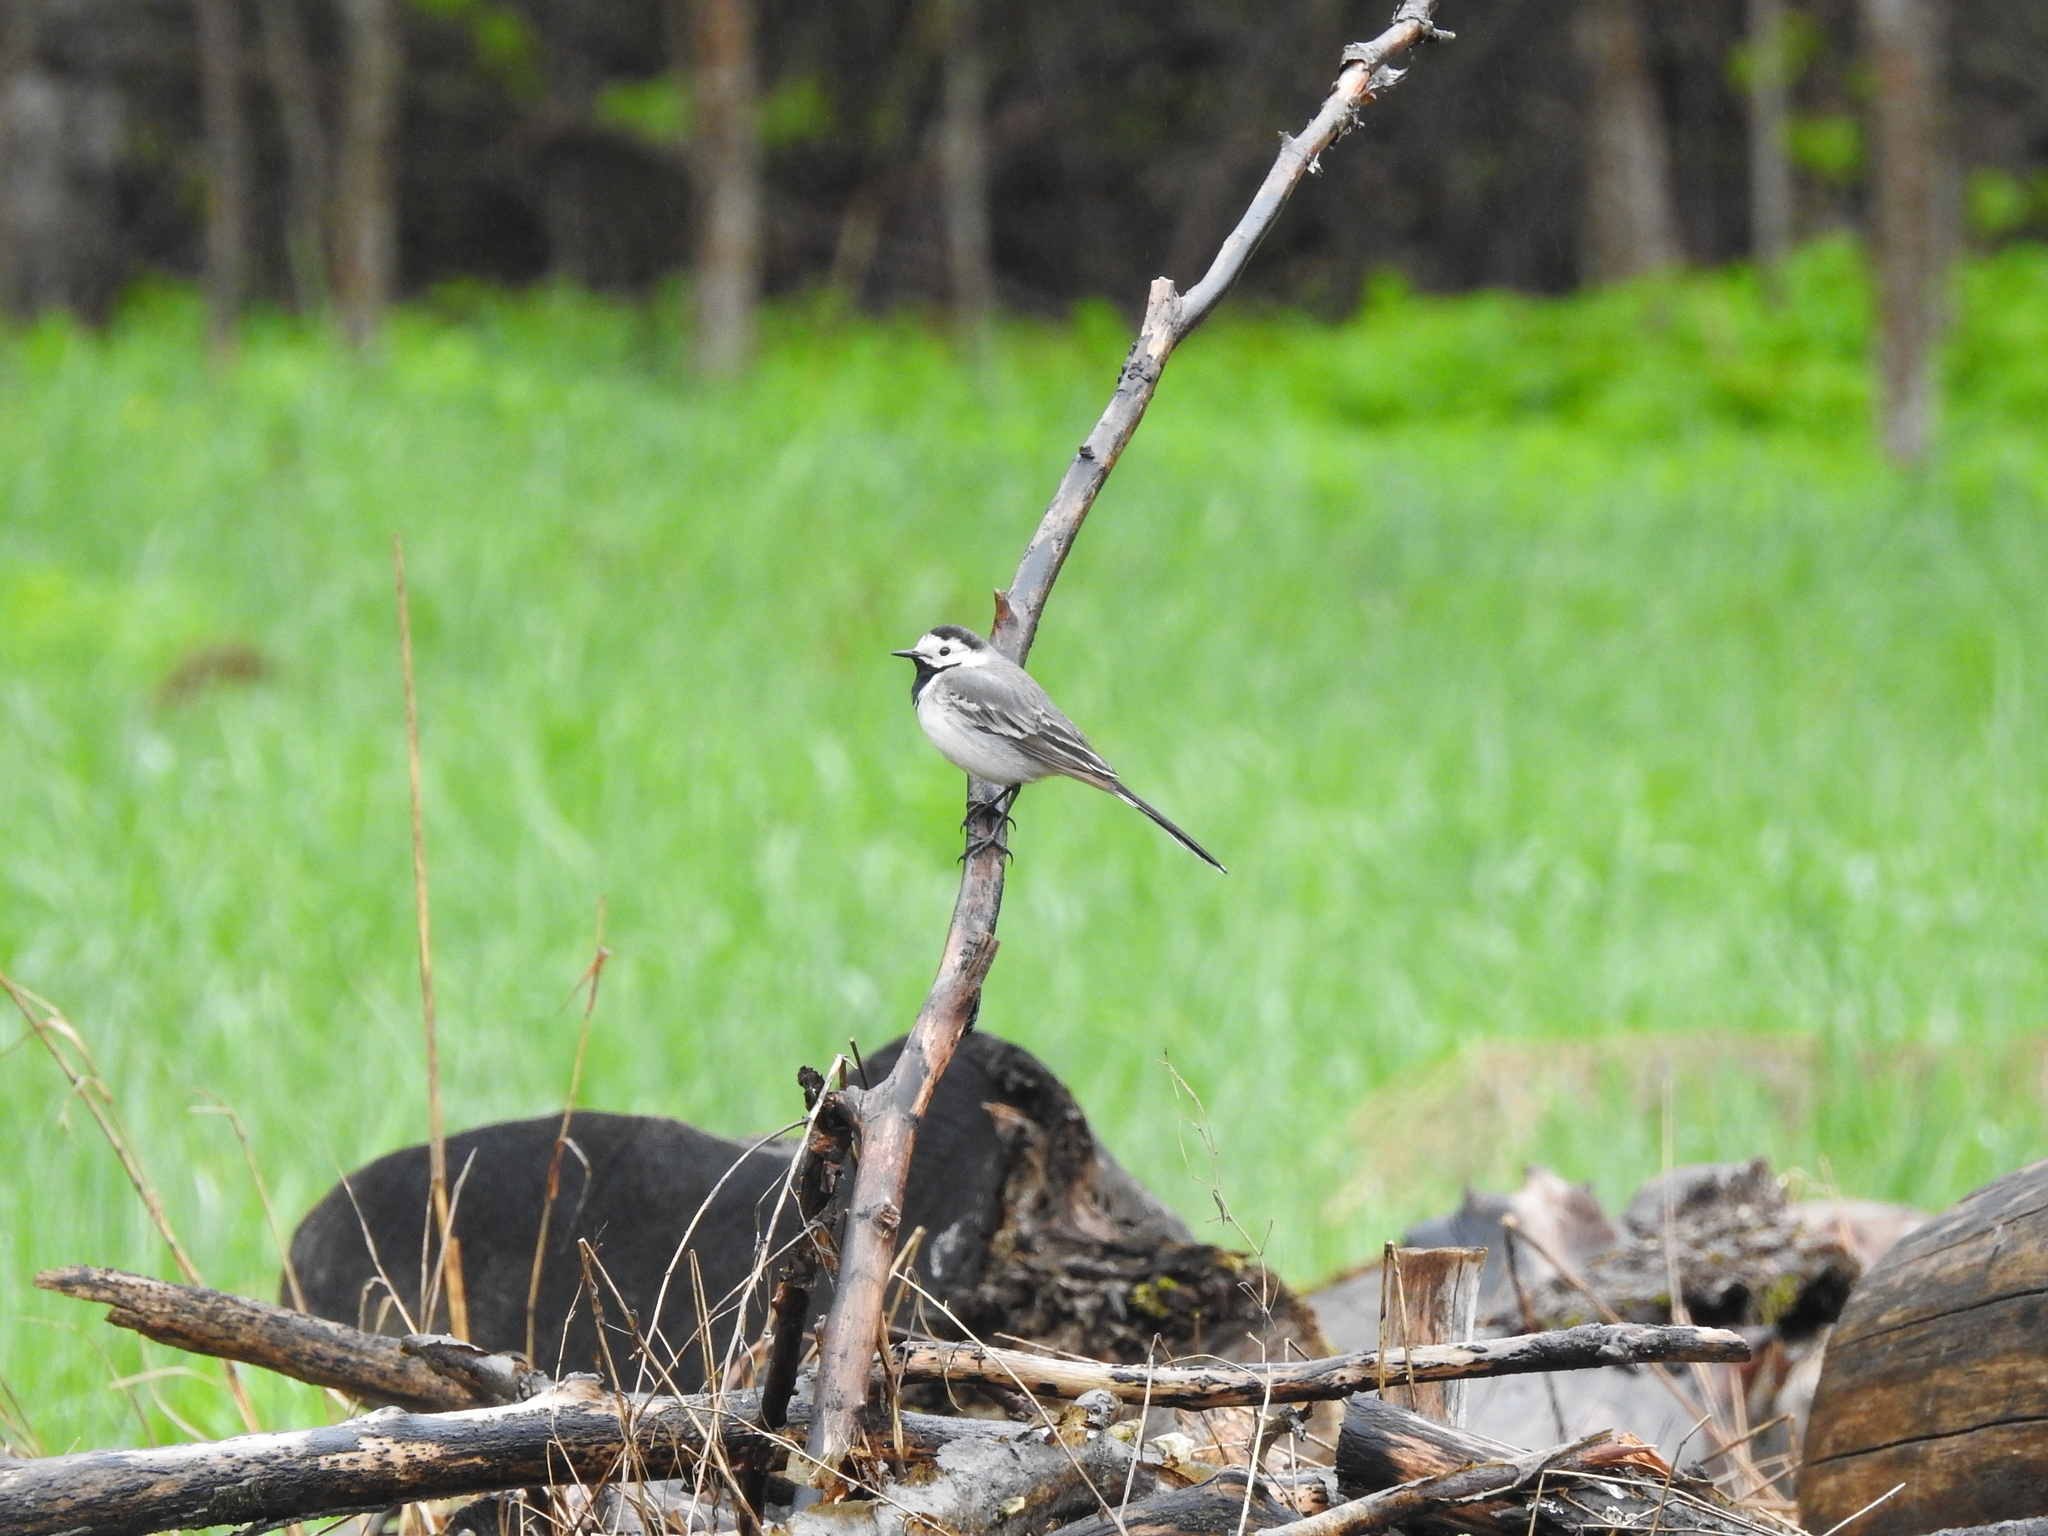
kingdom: Animalia
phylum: Chordata
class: Aves
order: Passeriformes
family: Motacillidae
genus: Motacilla
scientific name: Motacilla alba
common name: White wagtail
